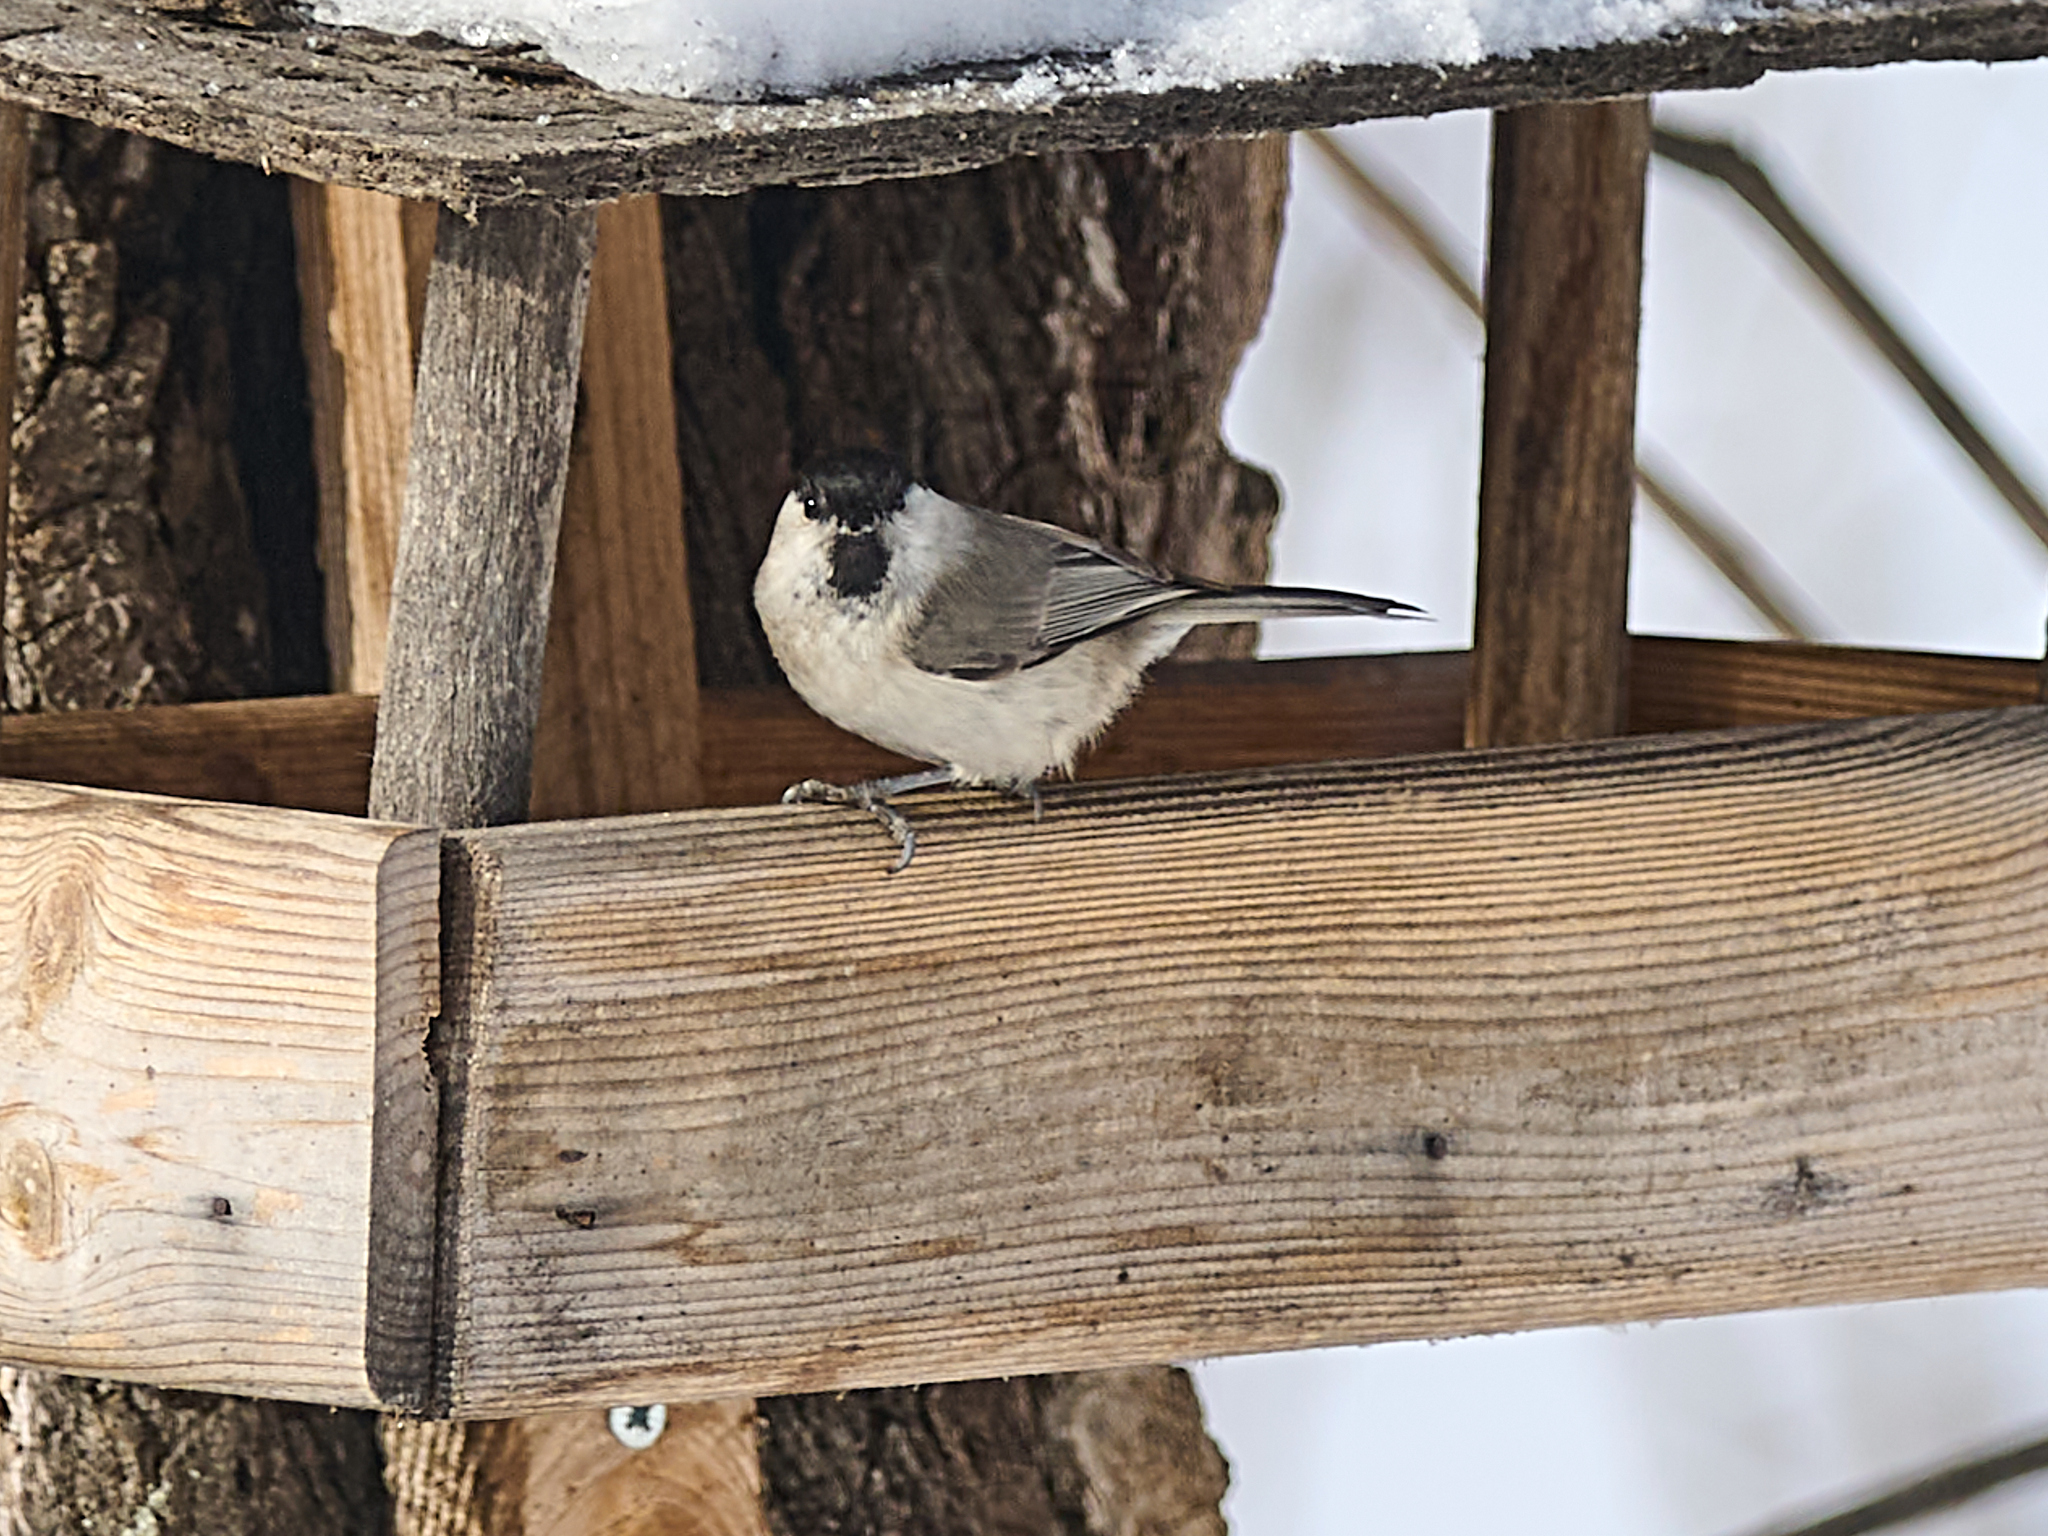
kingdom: Animalia
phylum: Chordata
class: Aves
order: Passeriformes
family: Paridae
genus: Poecile
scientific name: Poecile palustris
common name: Marsh tit
